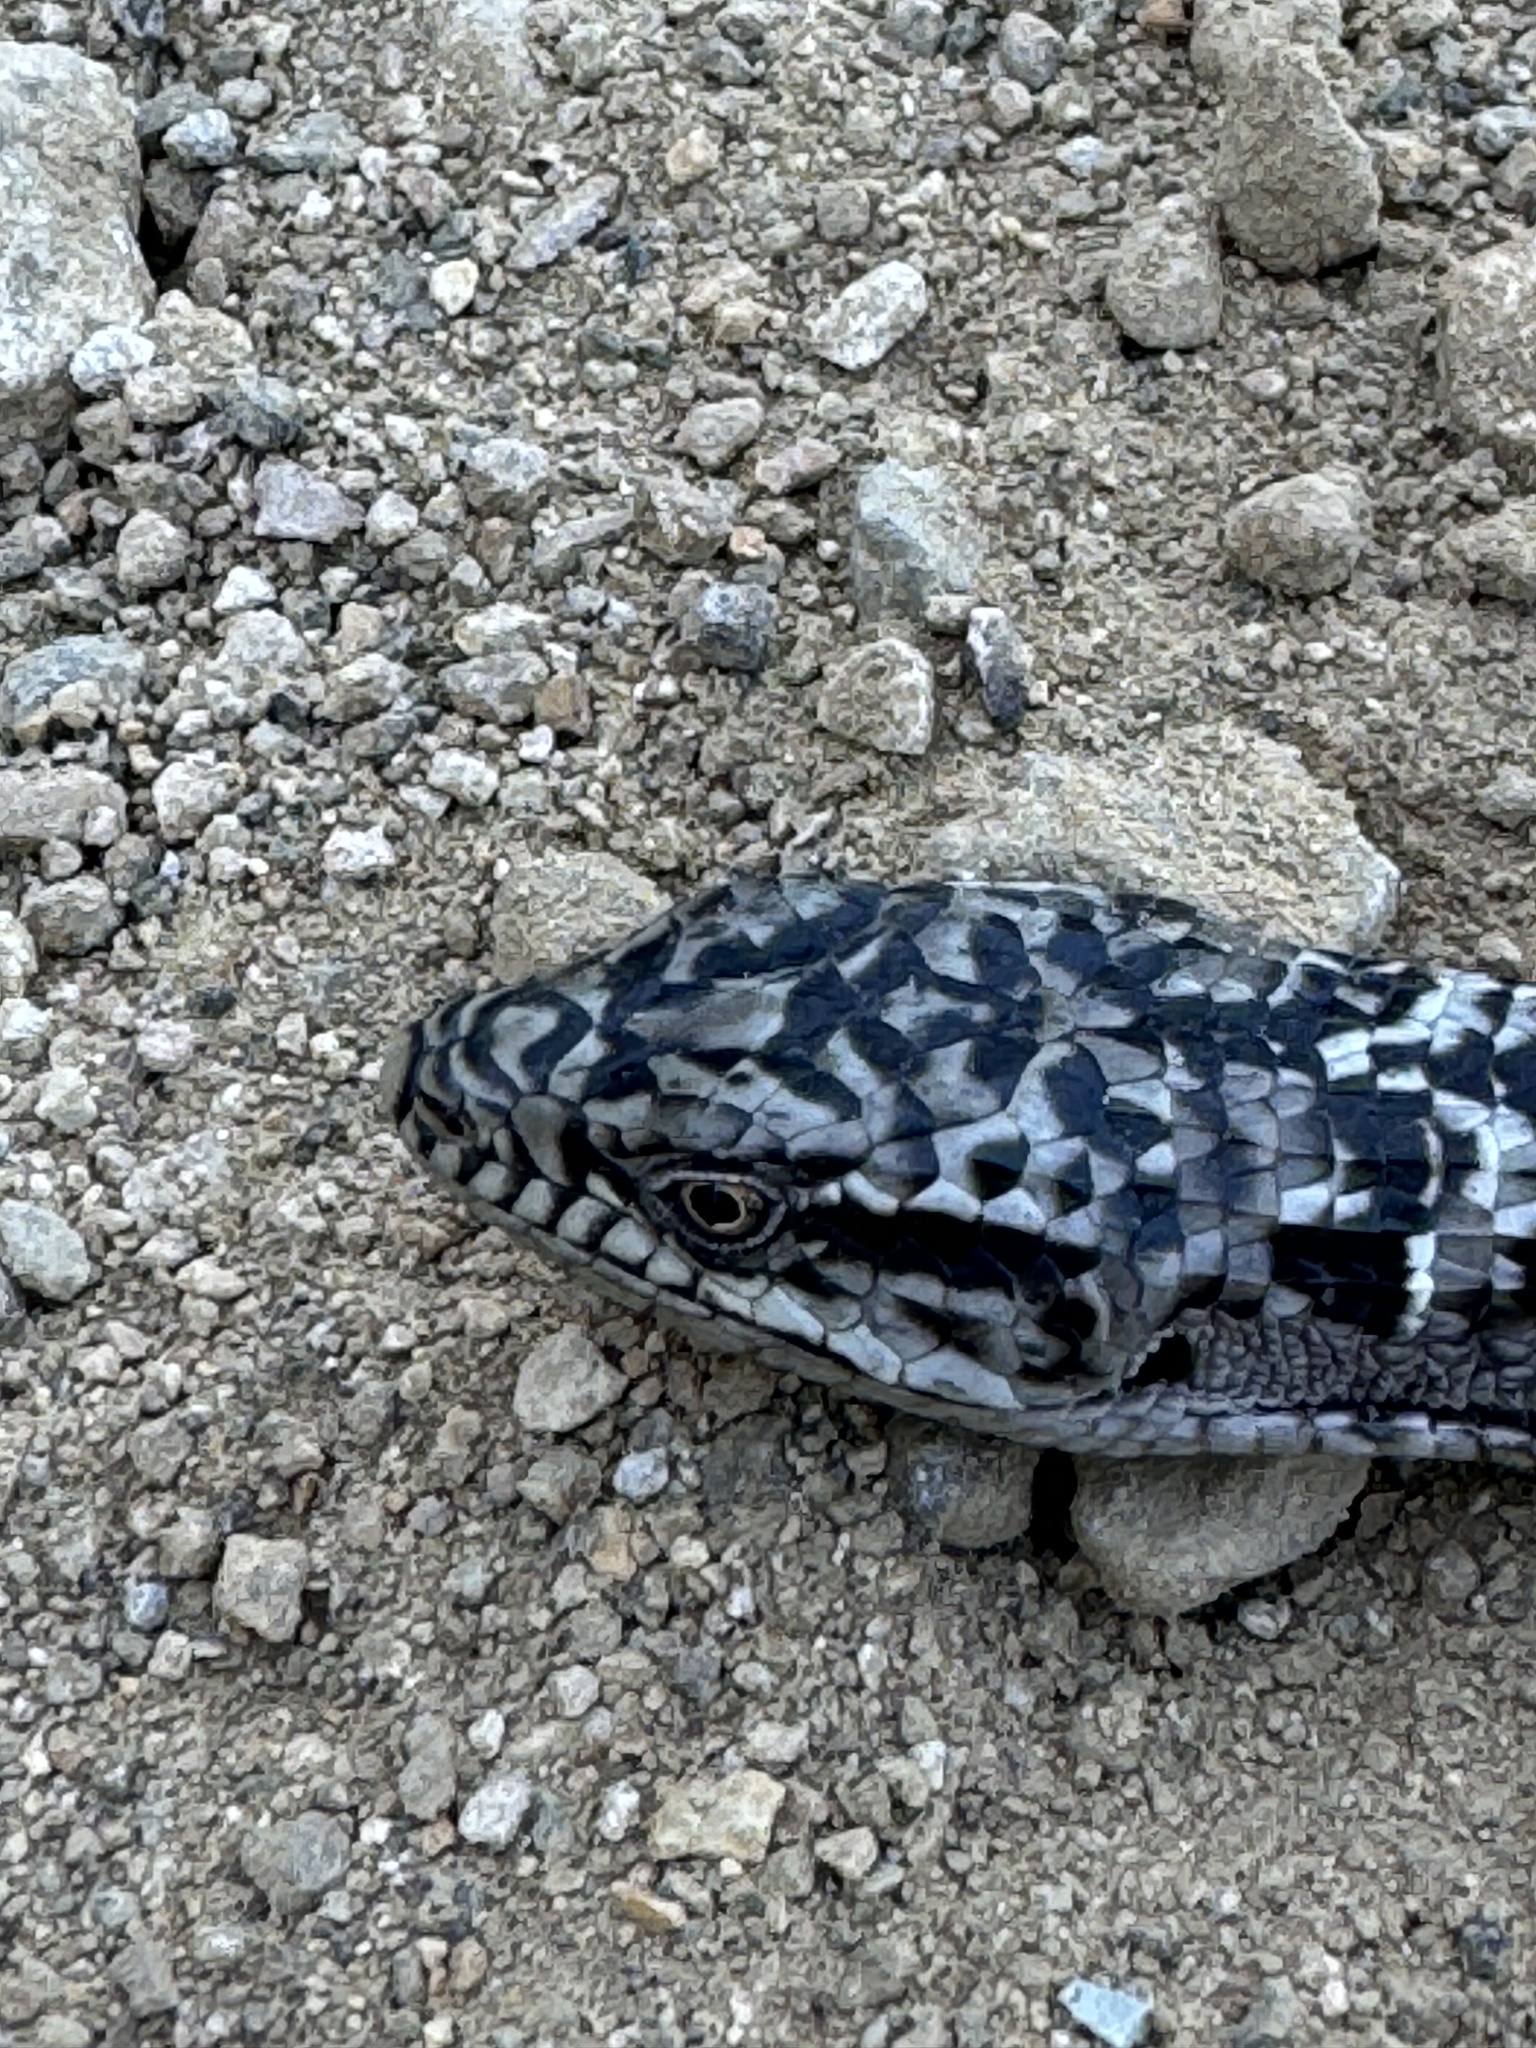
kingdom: Animalia
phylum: Chordata
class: Squamata
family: Anguidae
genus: Elgaria
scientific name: Elgaria multicarinata
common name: Southern alligator lizard
